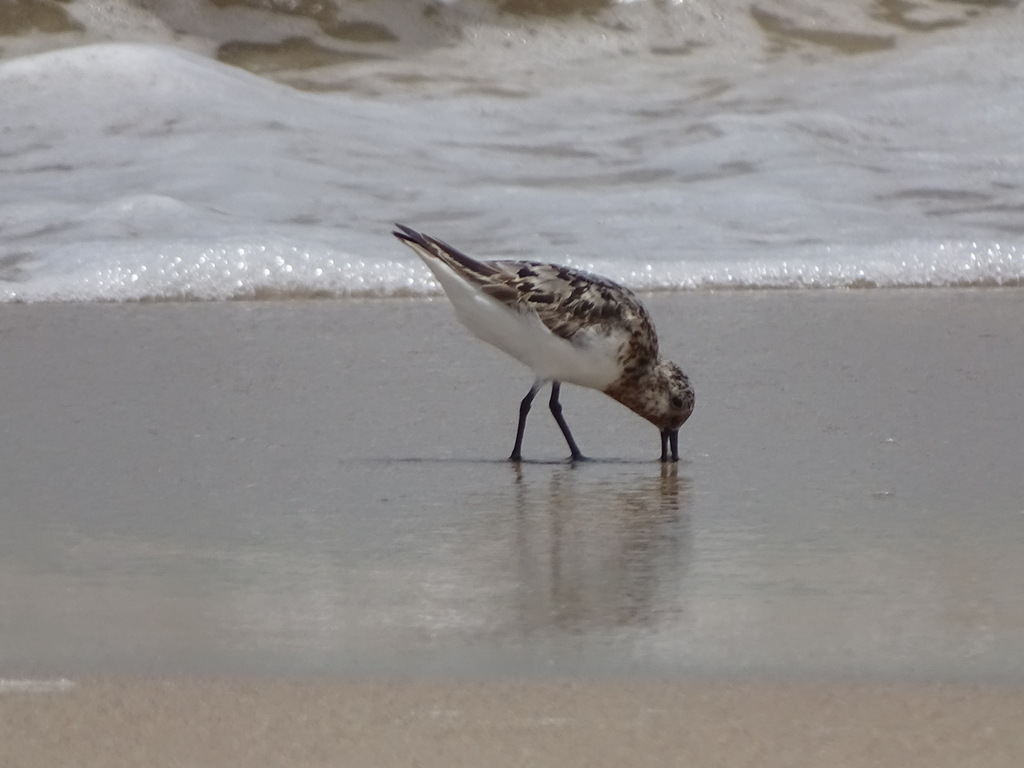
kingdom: Animalia
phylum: Chordata
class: Aves
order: Charadriiformes
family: Scolopacidae
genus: Calidris
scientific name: Calidris alba
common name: Sanderling
